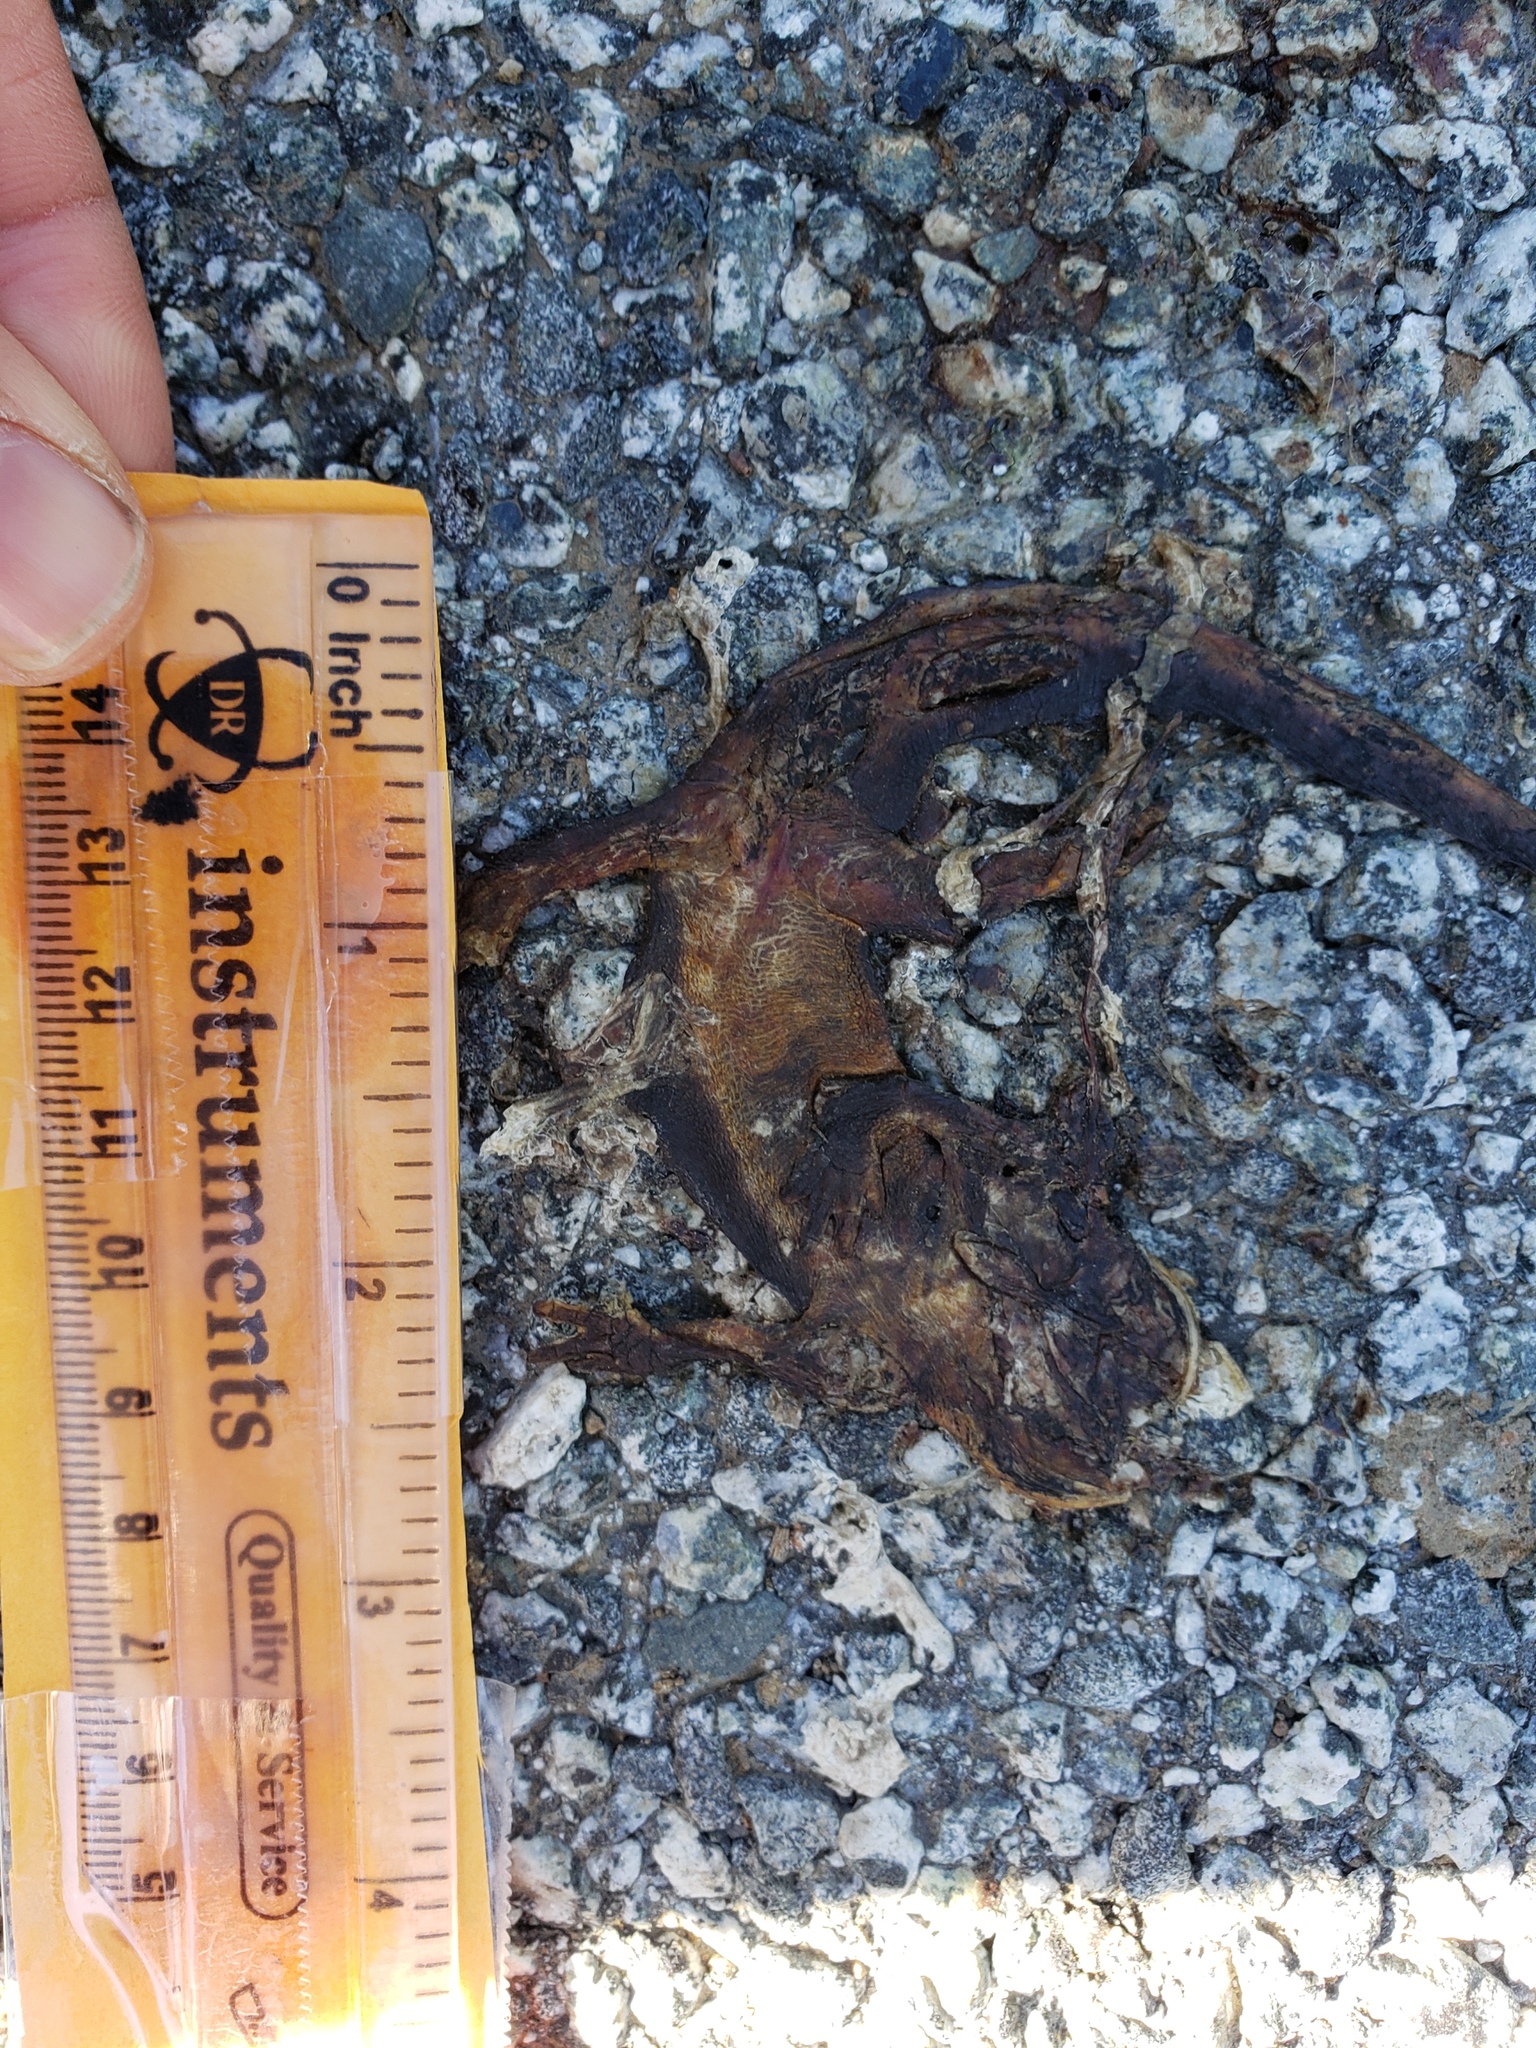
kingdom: Animalia
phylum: Chordata
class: Amphibia
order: Caudata
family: Salamandridae
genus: Taricha
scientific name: Taricha
